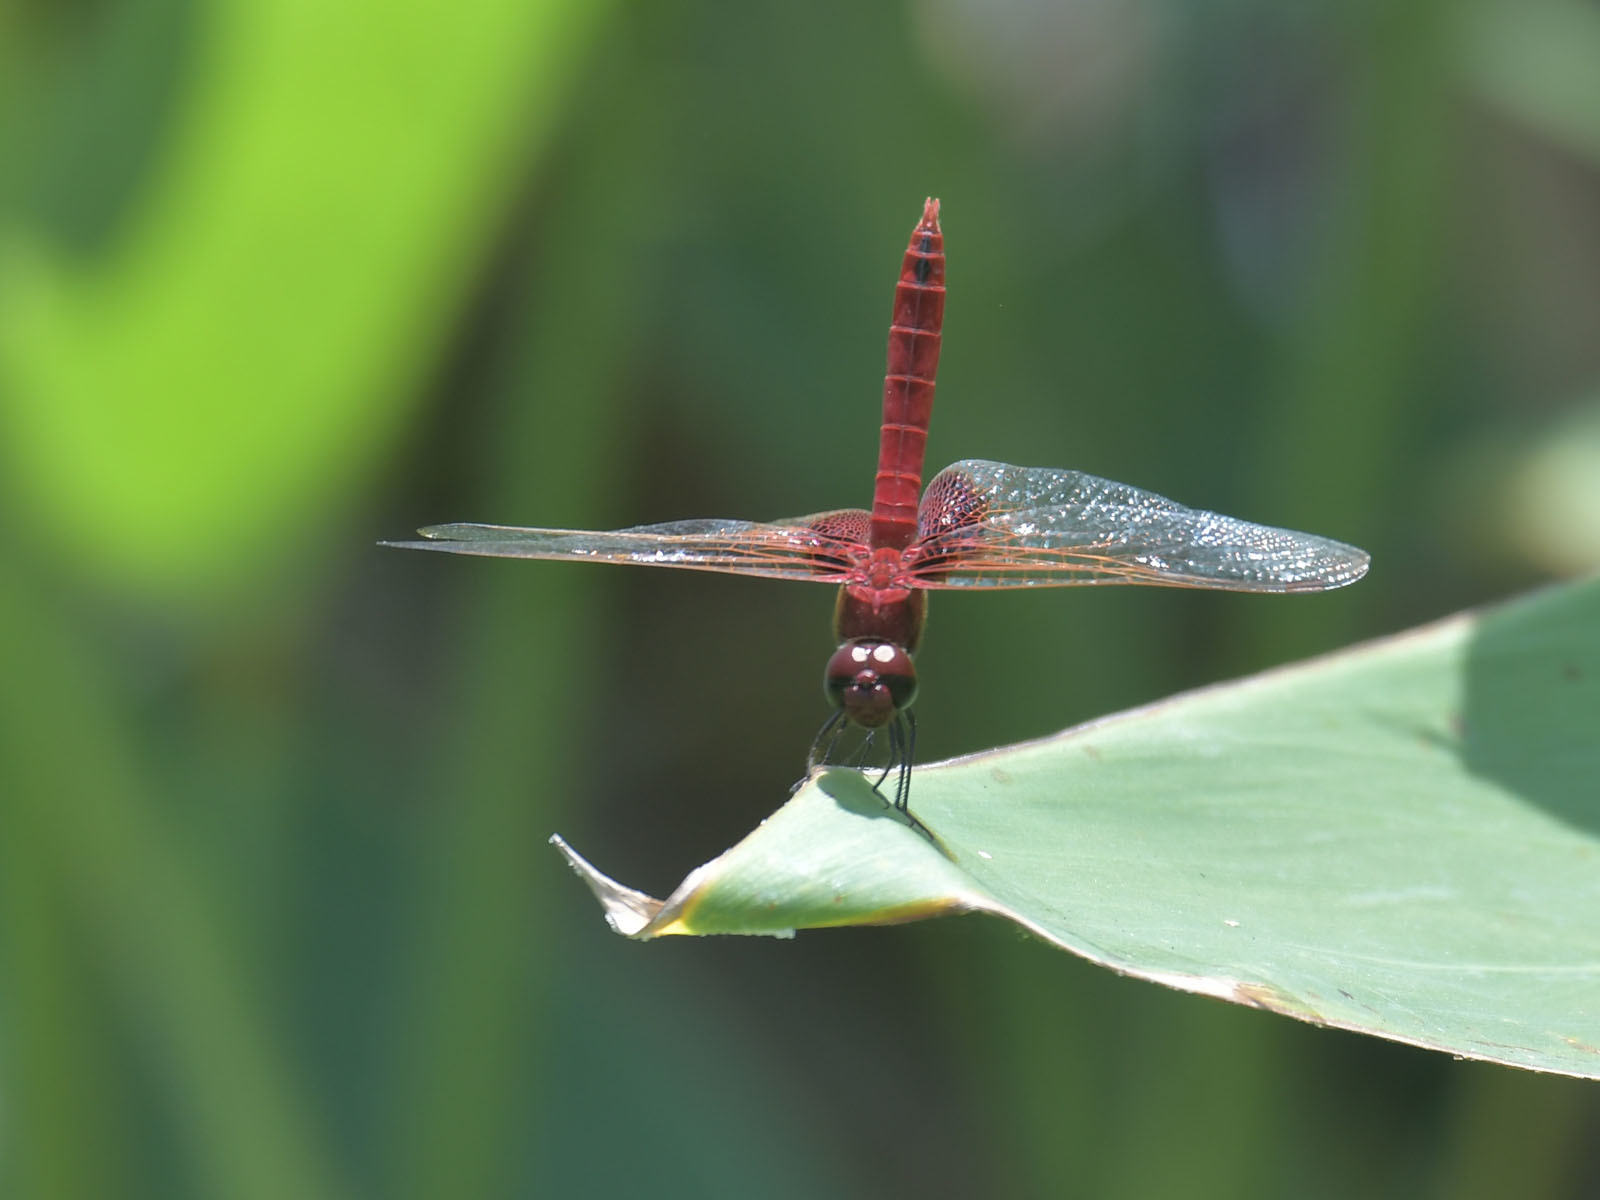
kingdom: Animalia
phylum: Arthropoda
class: Insecta
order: Odonata
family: Libellulidae
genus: Urothemis
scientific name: Urothemis signata
